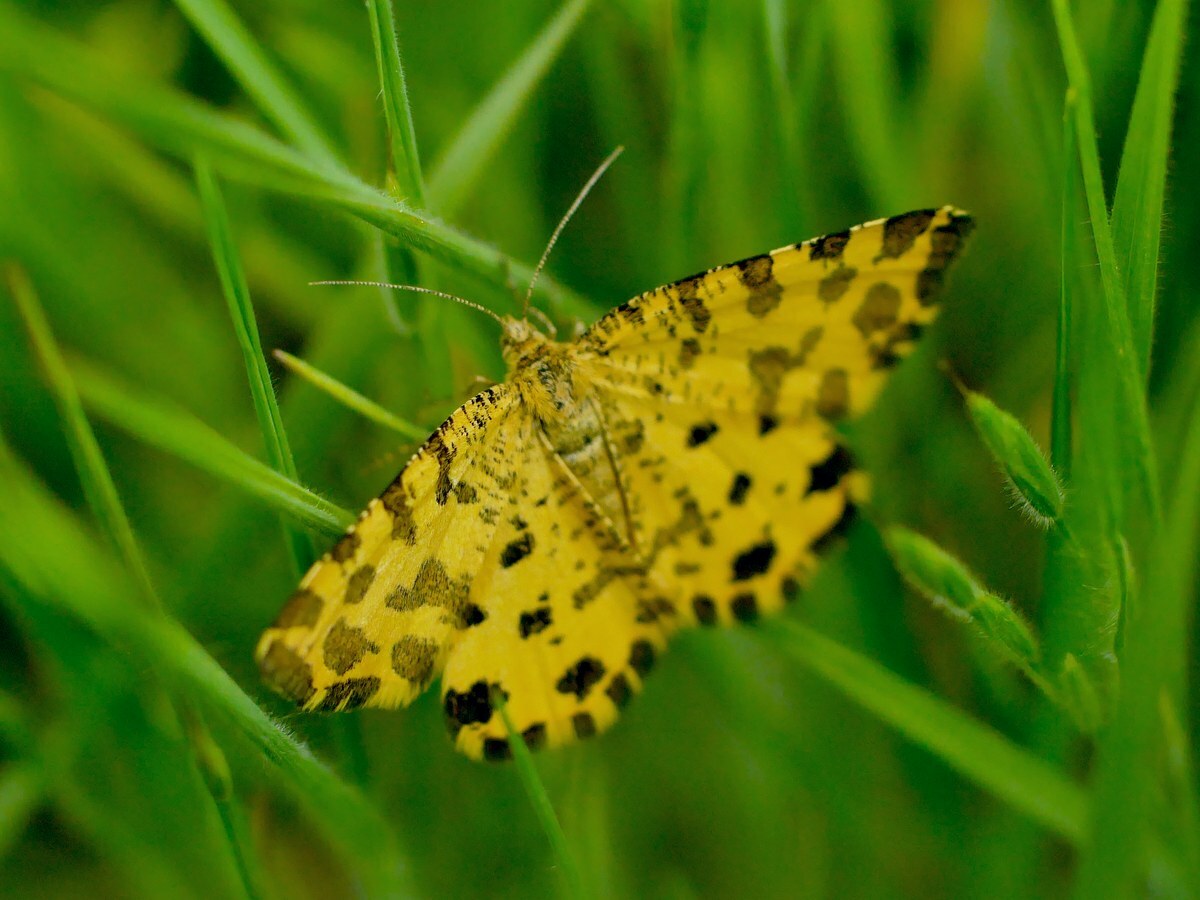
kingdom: Animalia
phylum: Arthropoda
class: Insecta
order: Lepidoptera
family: Geometridae
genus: Pseudopanthera
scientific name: Pseudopanthera macularia
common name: Speckled yellow
